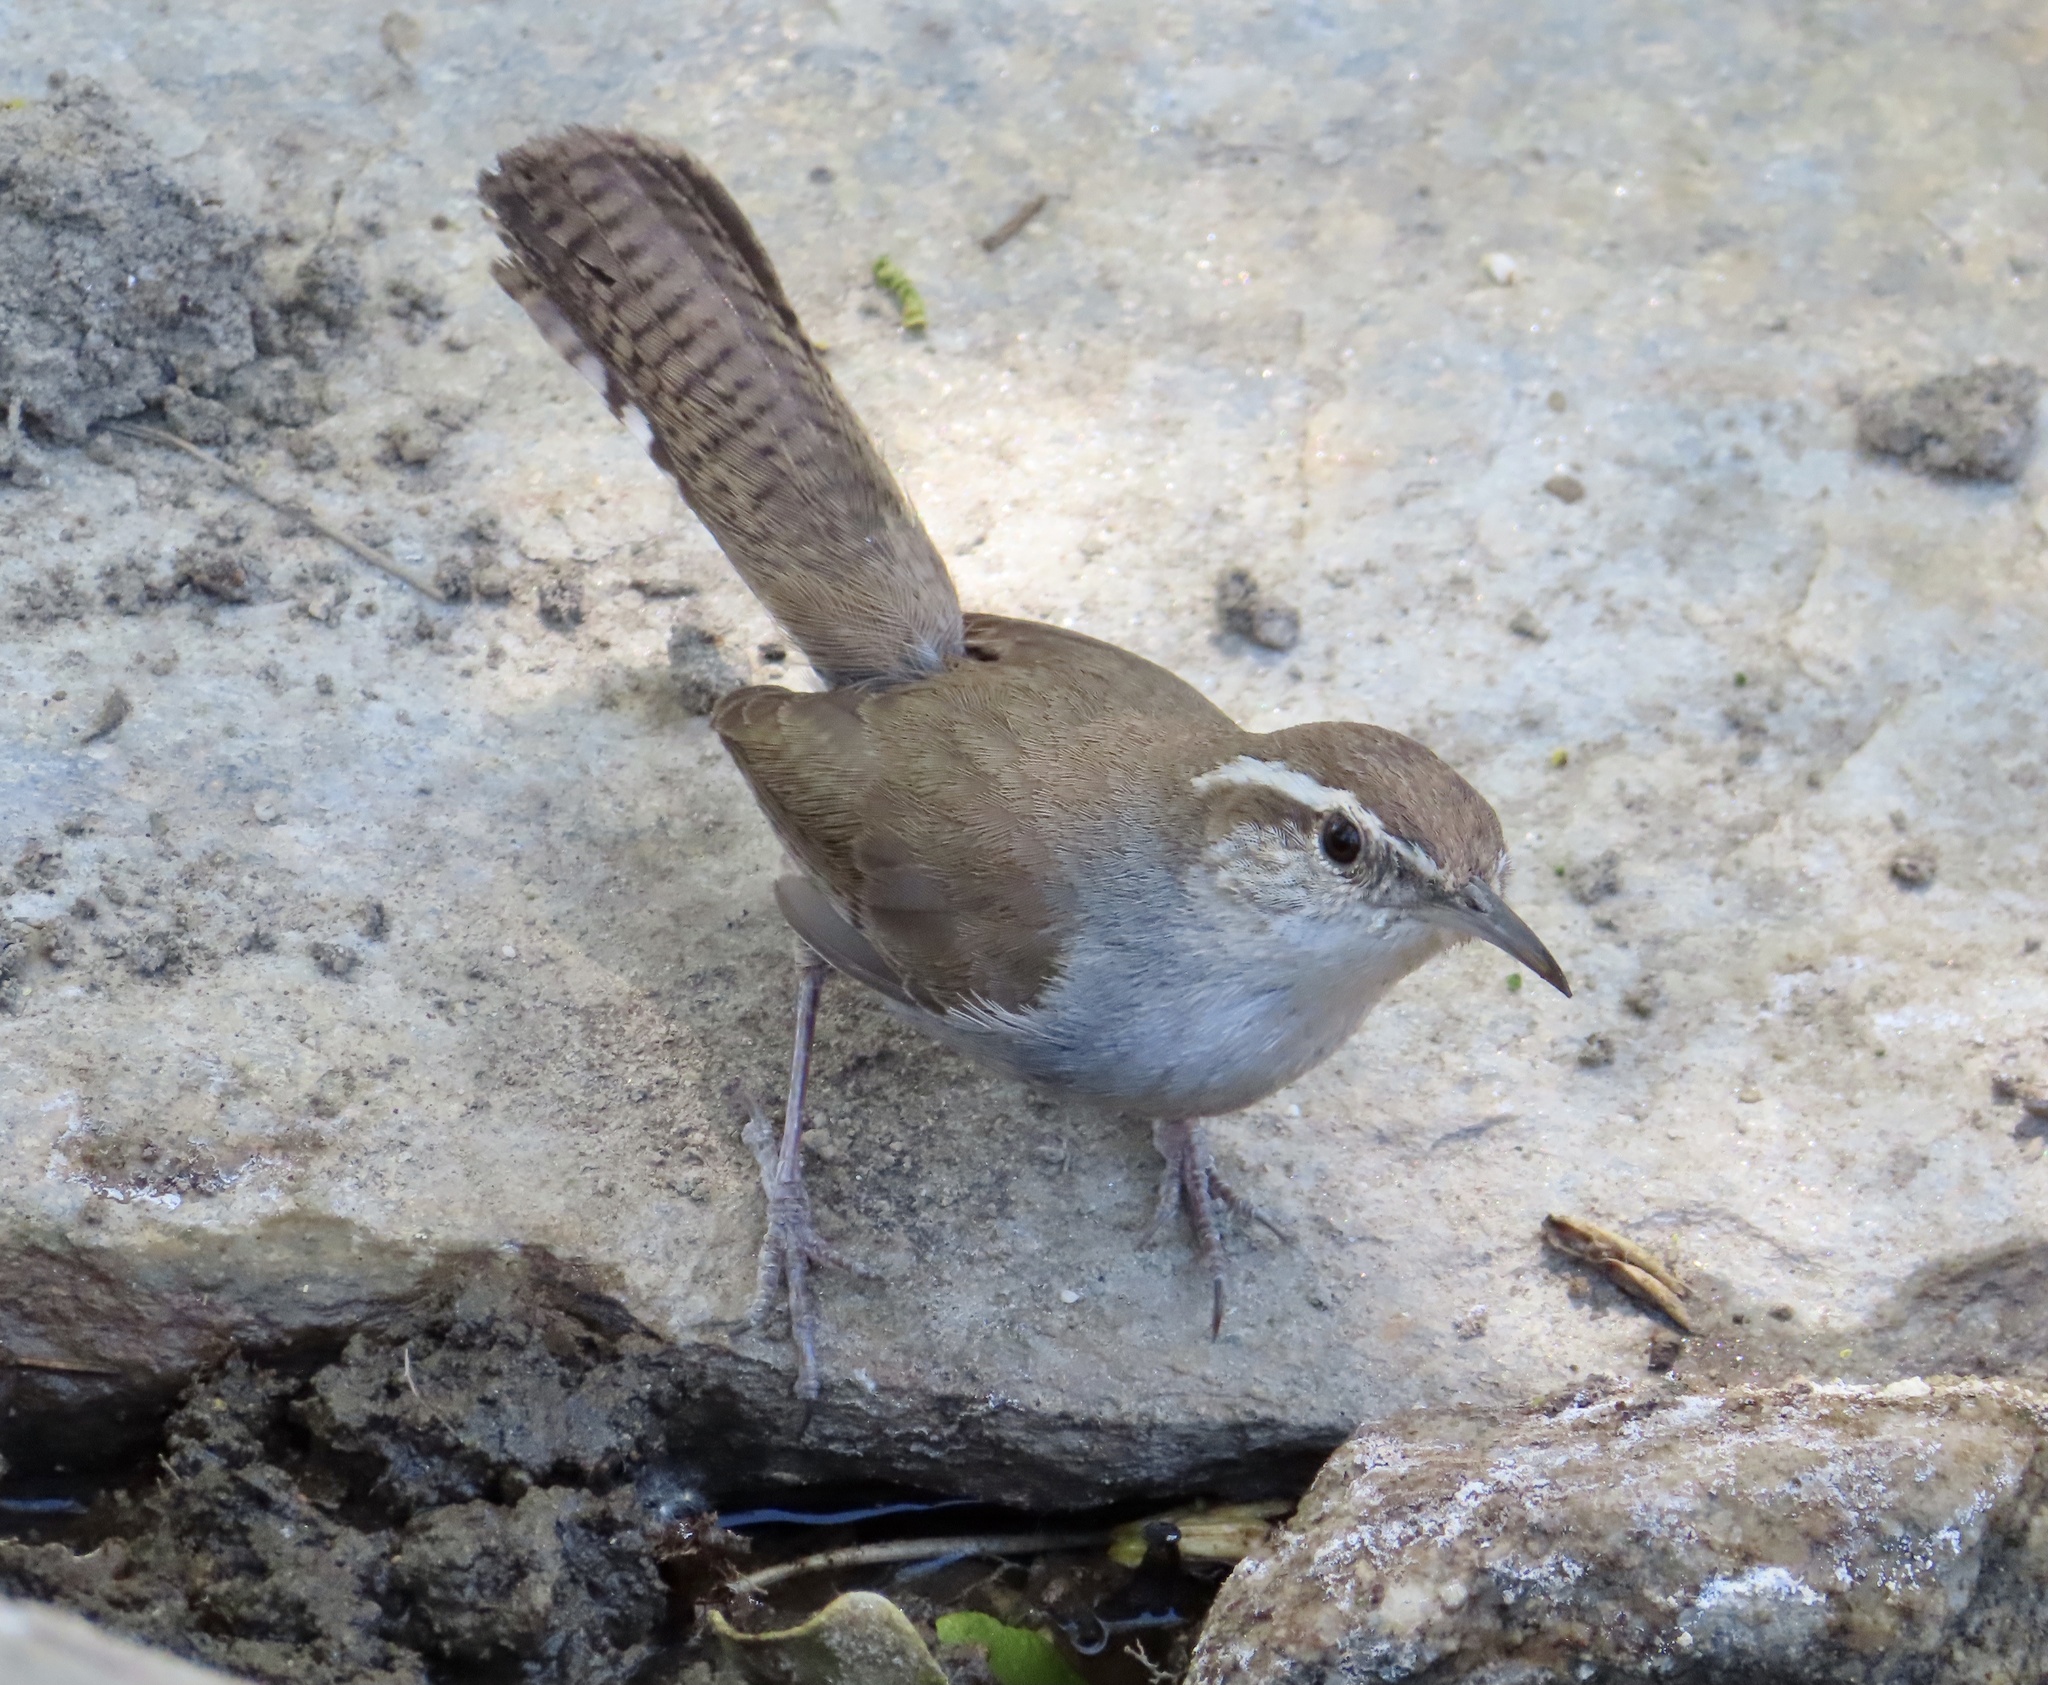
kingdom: Animalia
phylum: Chordata
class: Aves
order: Passeriformes
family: Troglodytidae
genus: Thryomanes
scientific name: Thryomanes bewickii
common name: Bewick's wren
